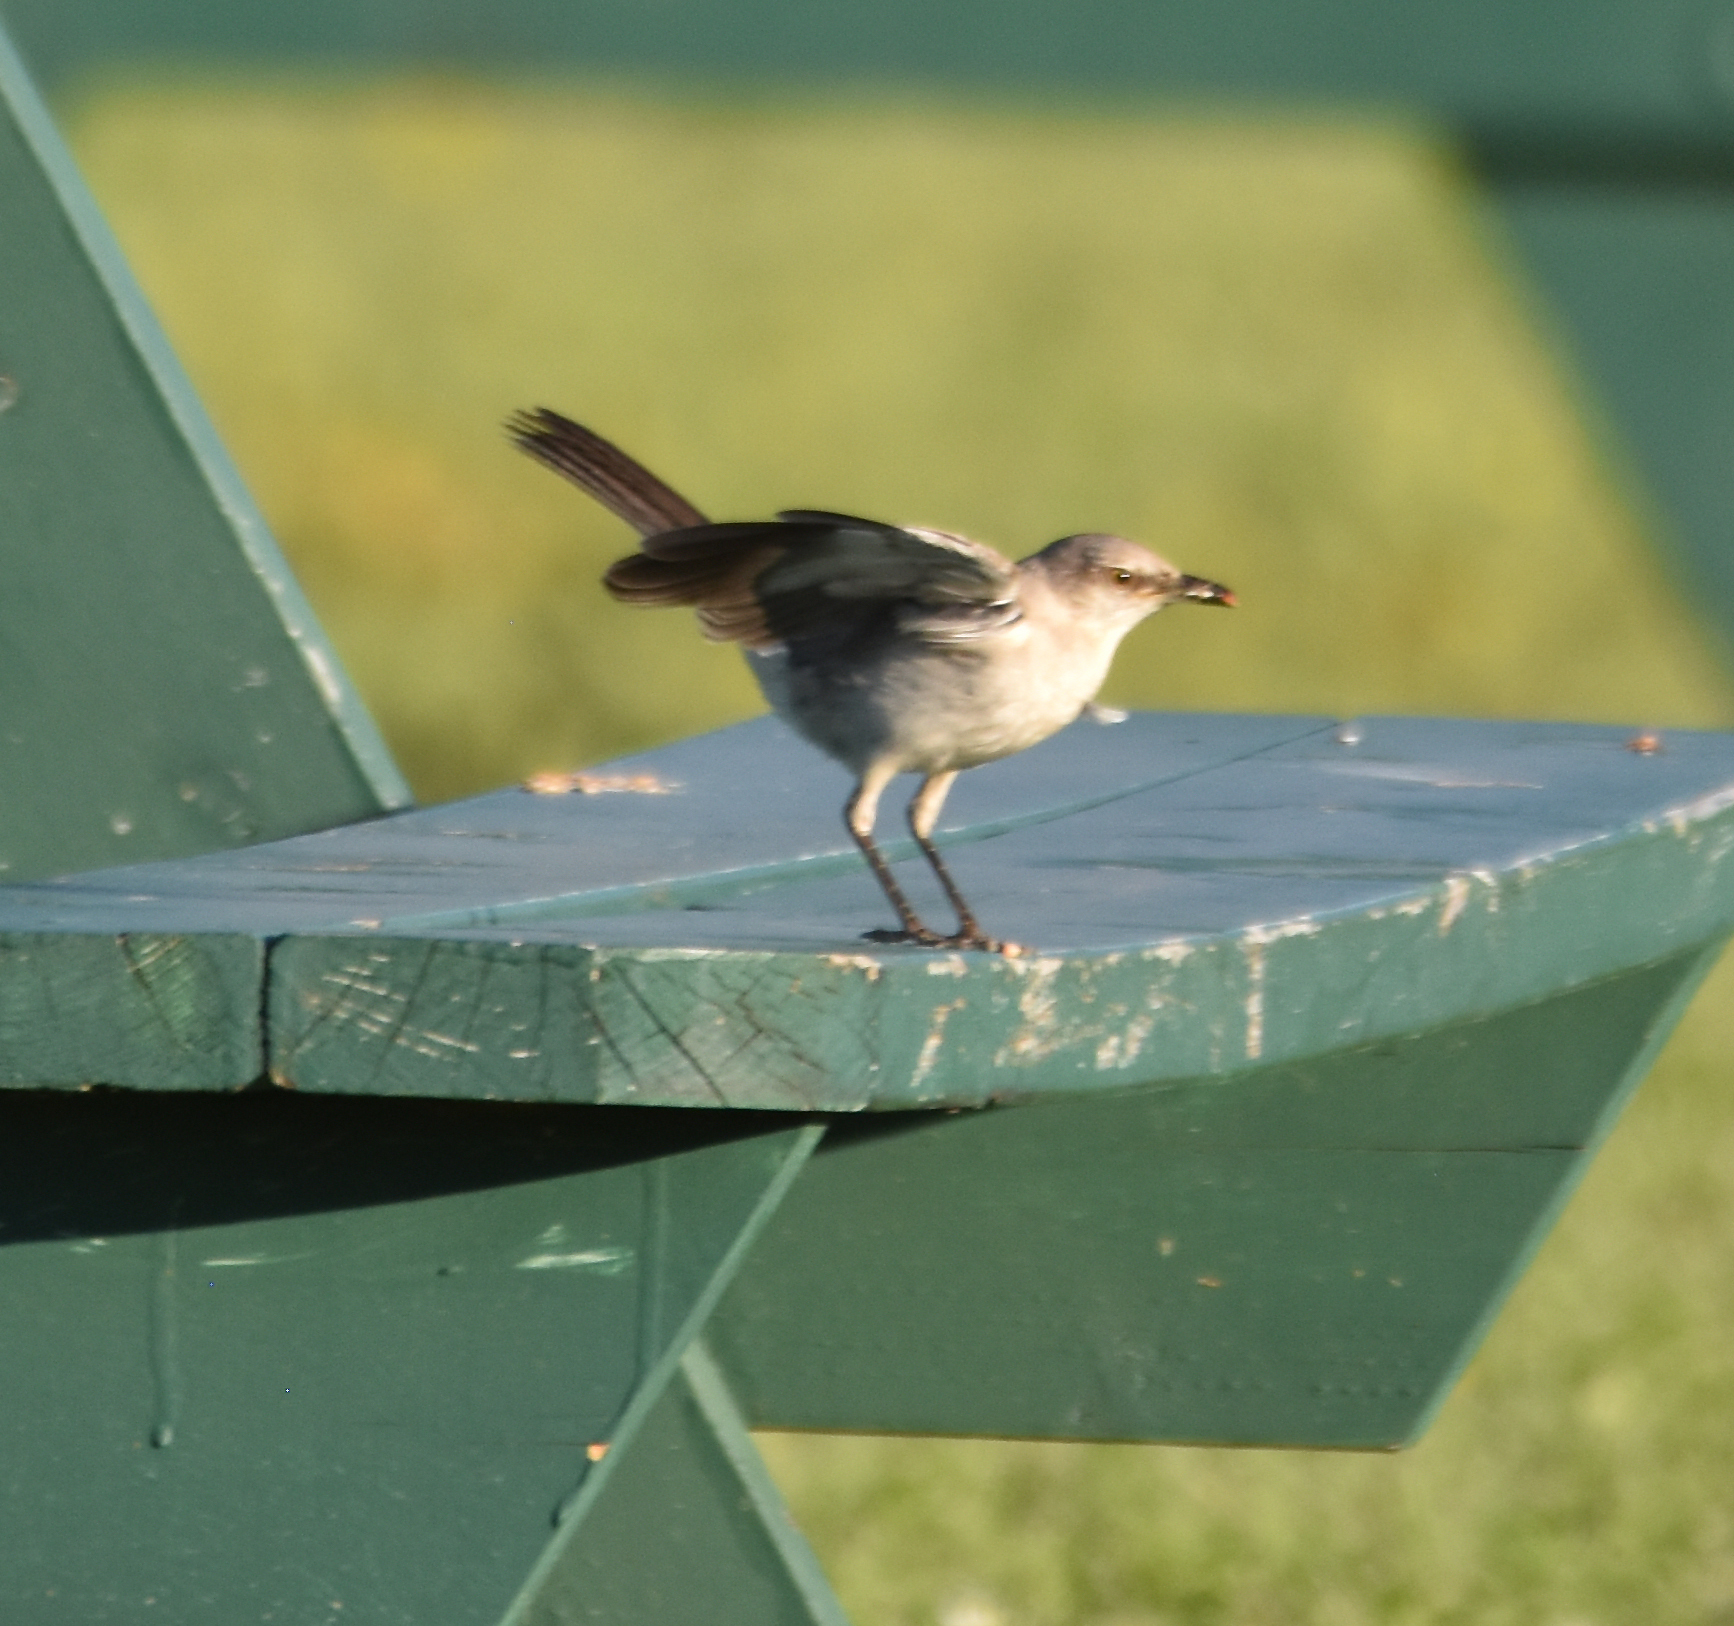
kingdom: Animalia
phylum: Chordata
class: Aves
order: Passeriformes
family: Mimidae
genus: Mimus
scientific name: Mimus polyglottos
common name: Northern mockingbird
